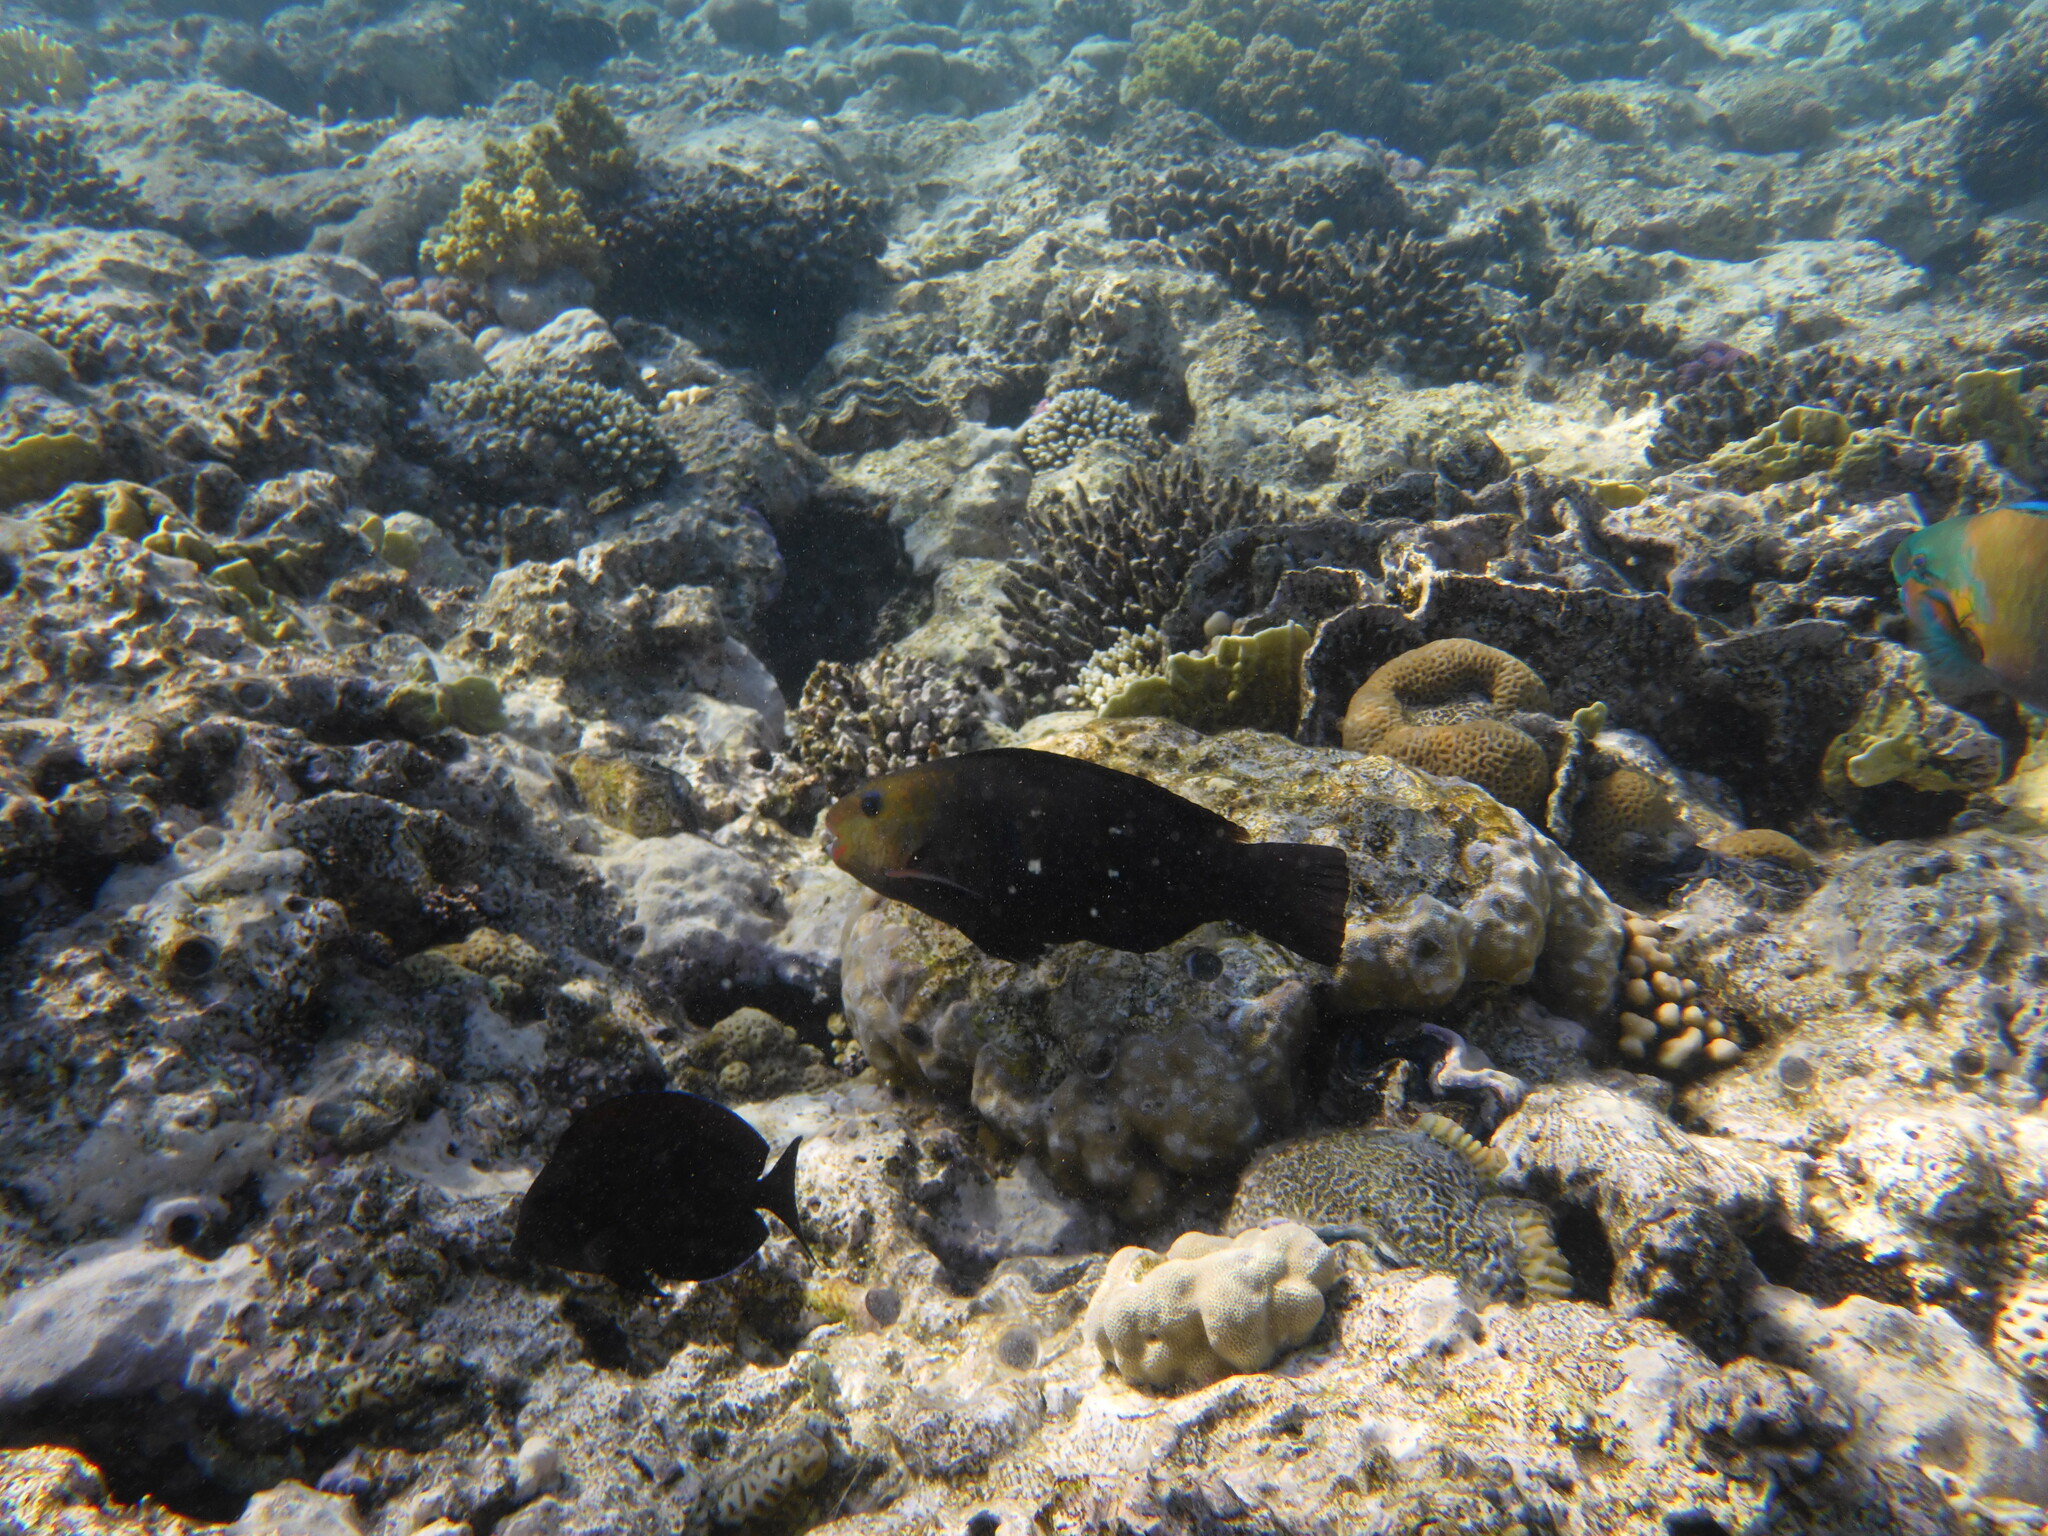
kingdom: Animalia
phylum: Chordata
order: Perciformes
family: Scaridae
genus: Chlorurus
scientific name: Chlorurus sordidus
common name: Bullethead parrotfish
